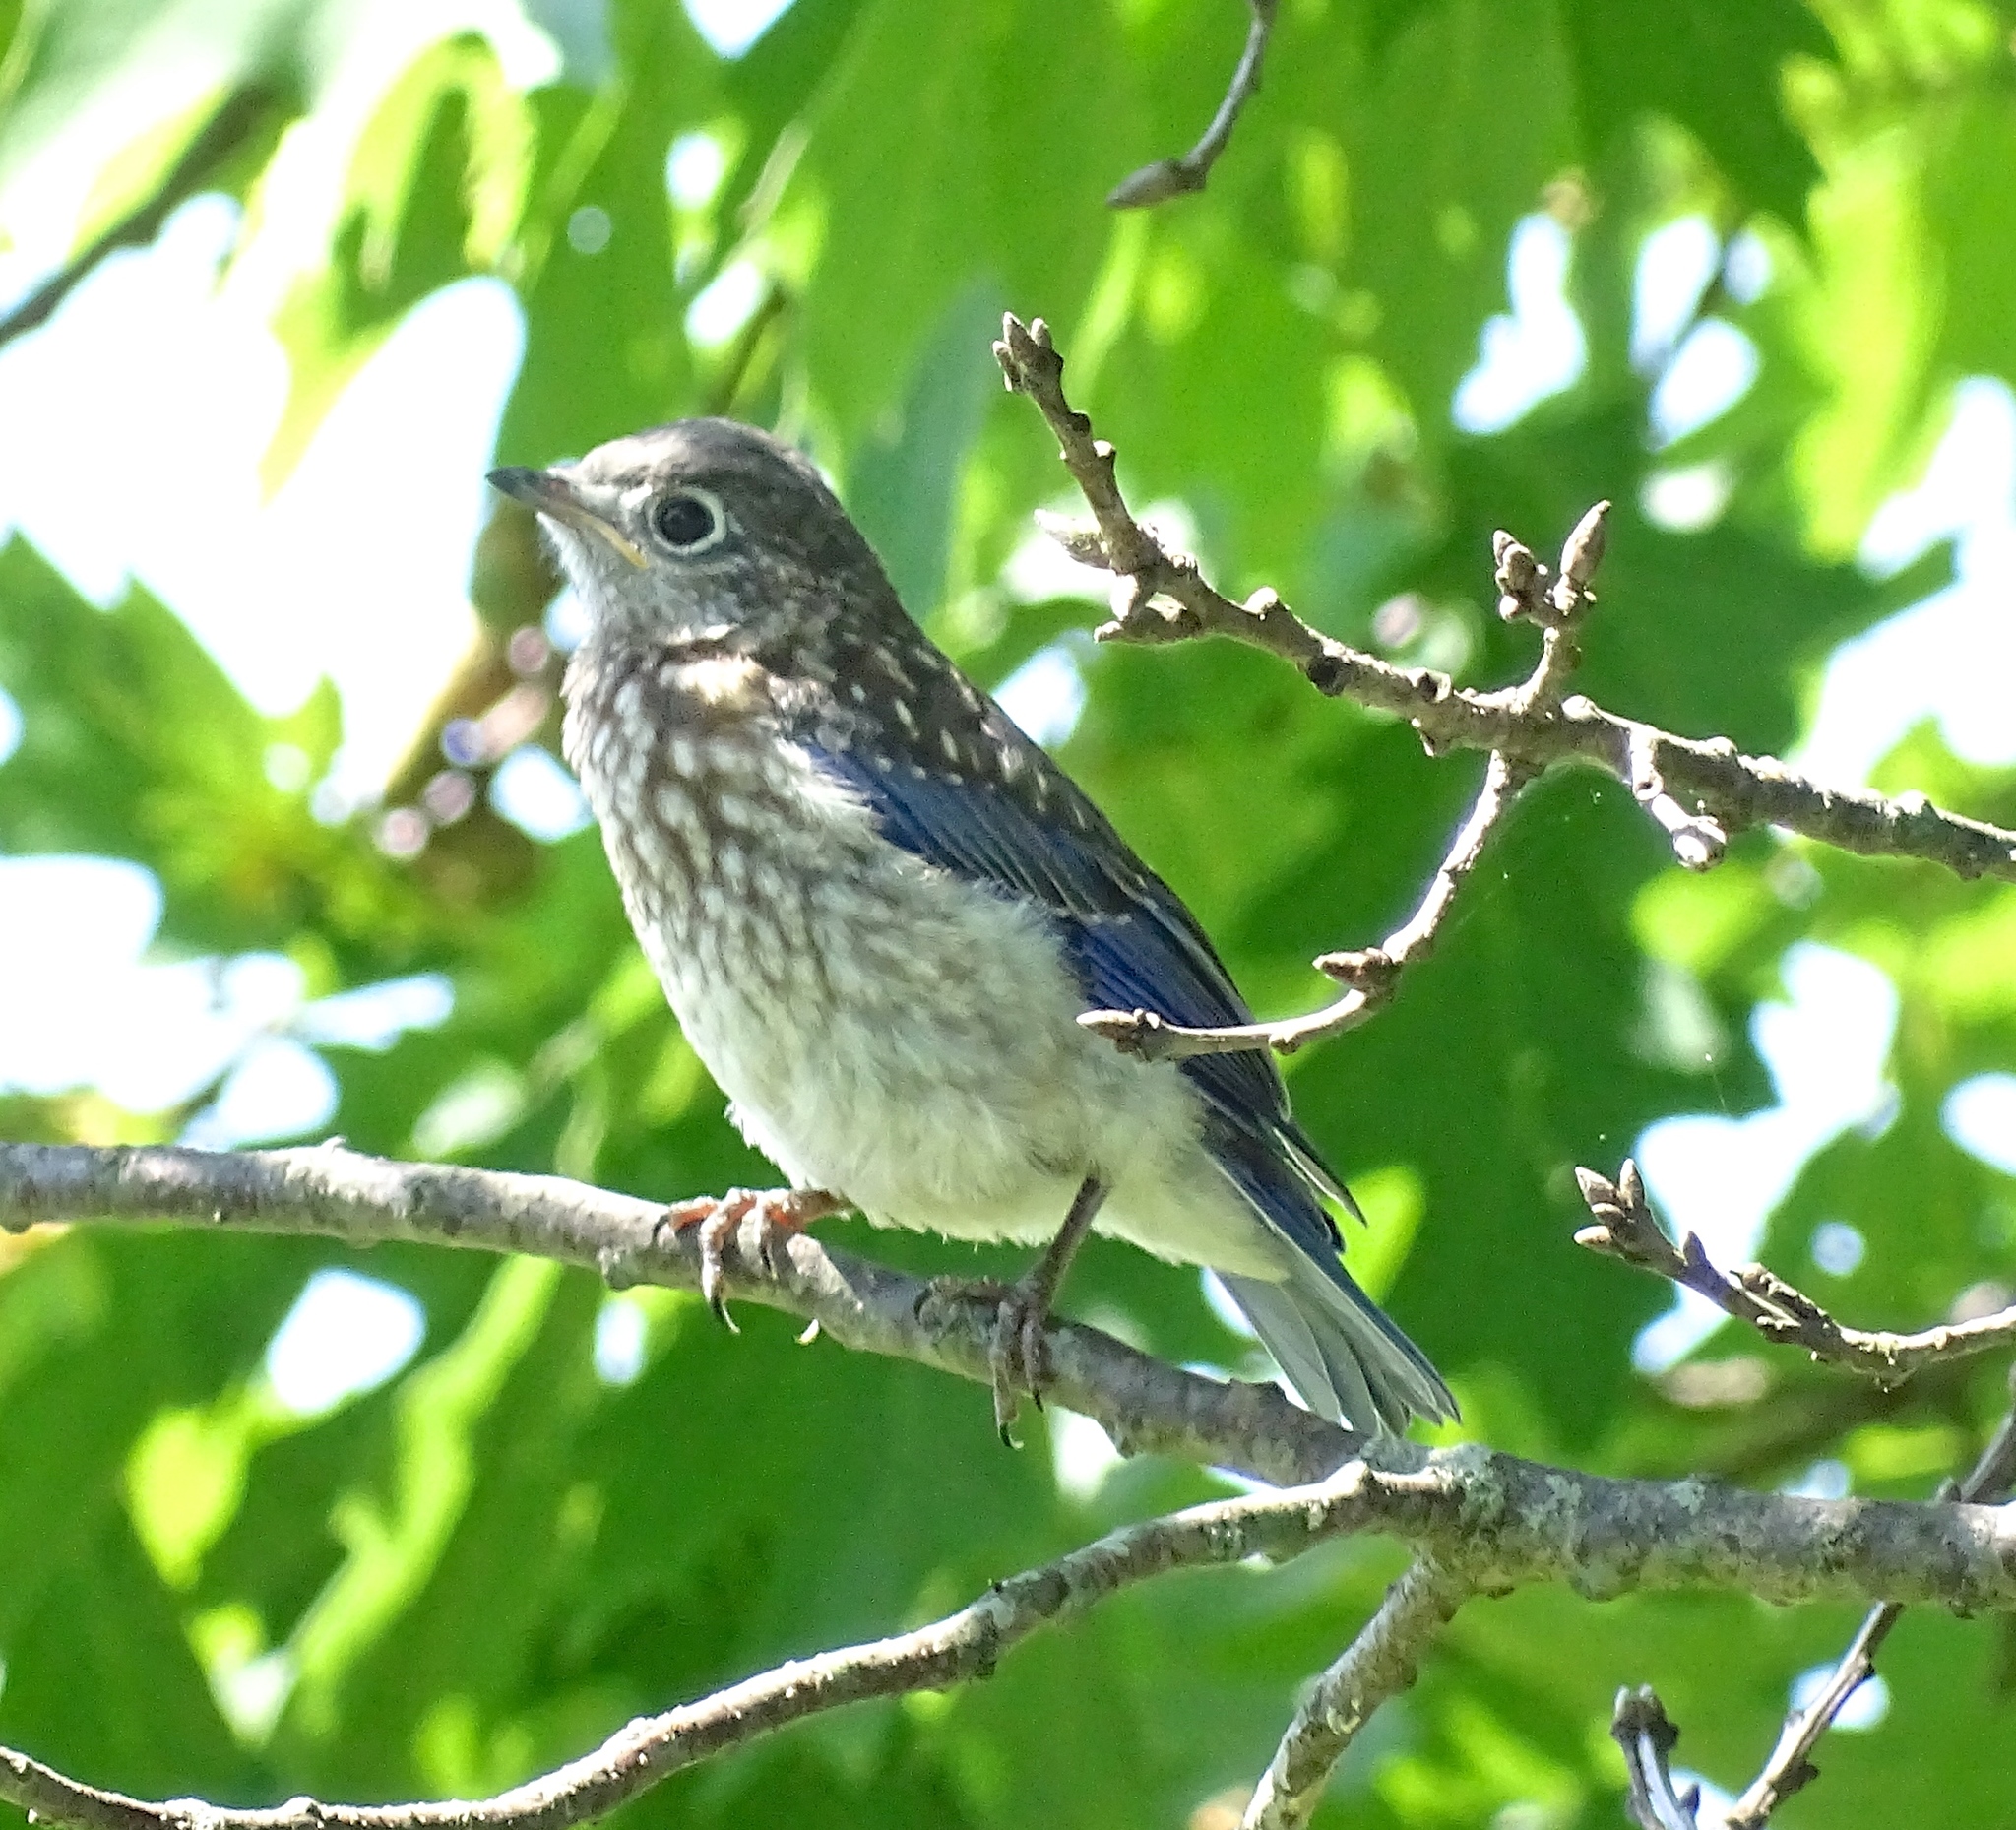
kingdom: Animalia
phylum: Chordata
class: Aves
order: Passeriformes
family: Turdidae
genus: Sialia
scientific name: Sialia sialis
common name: Eastern bluebird
